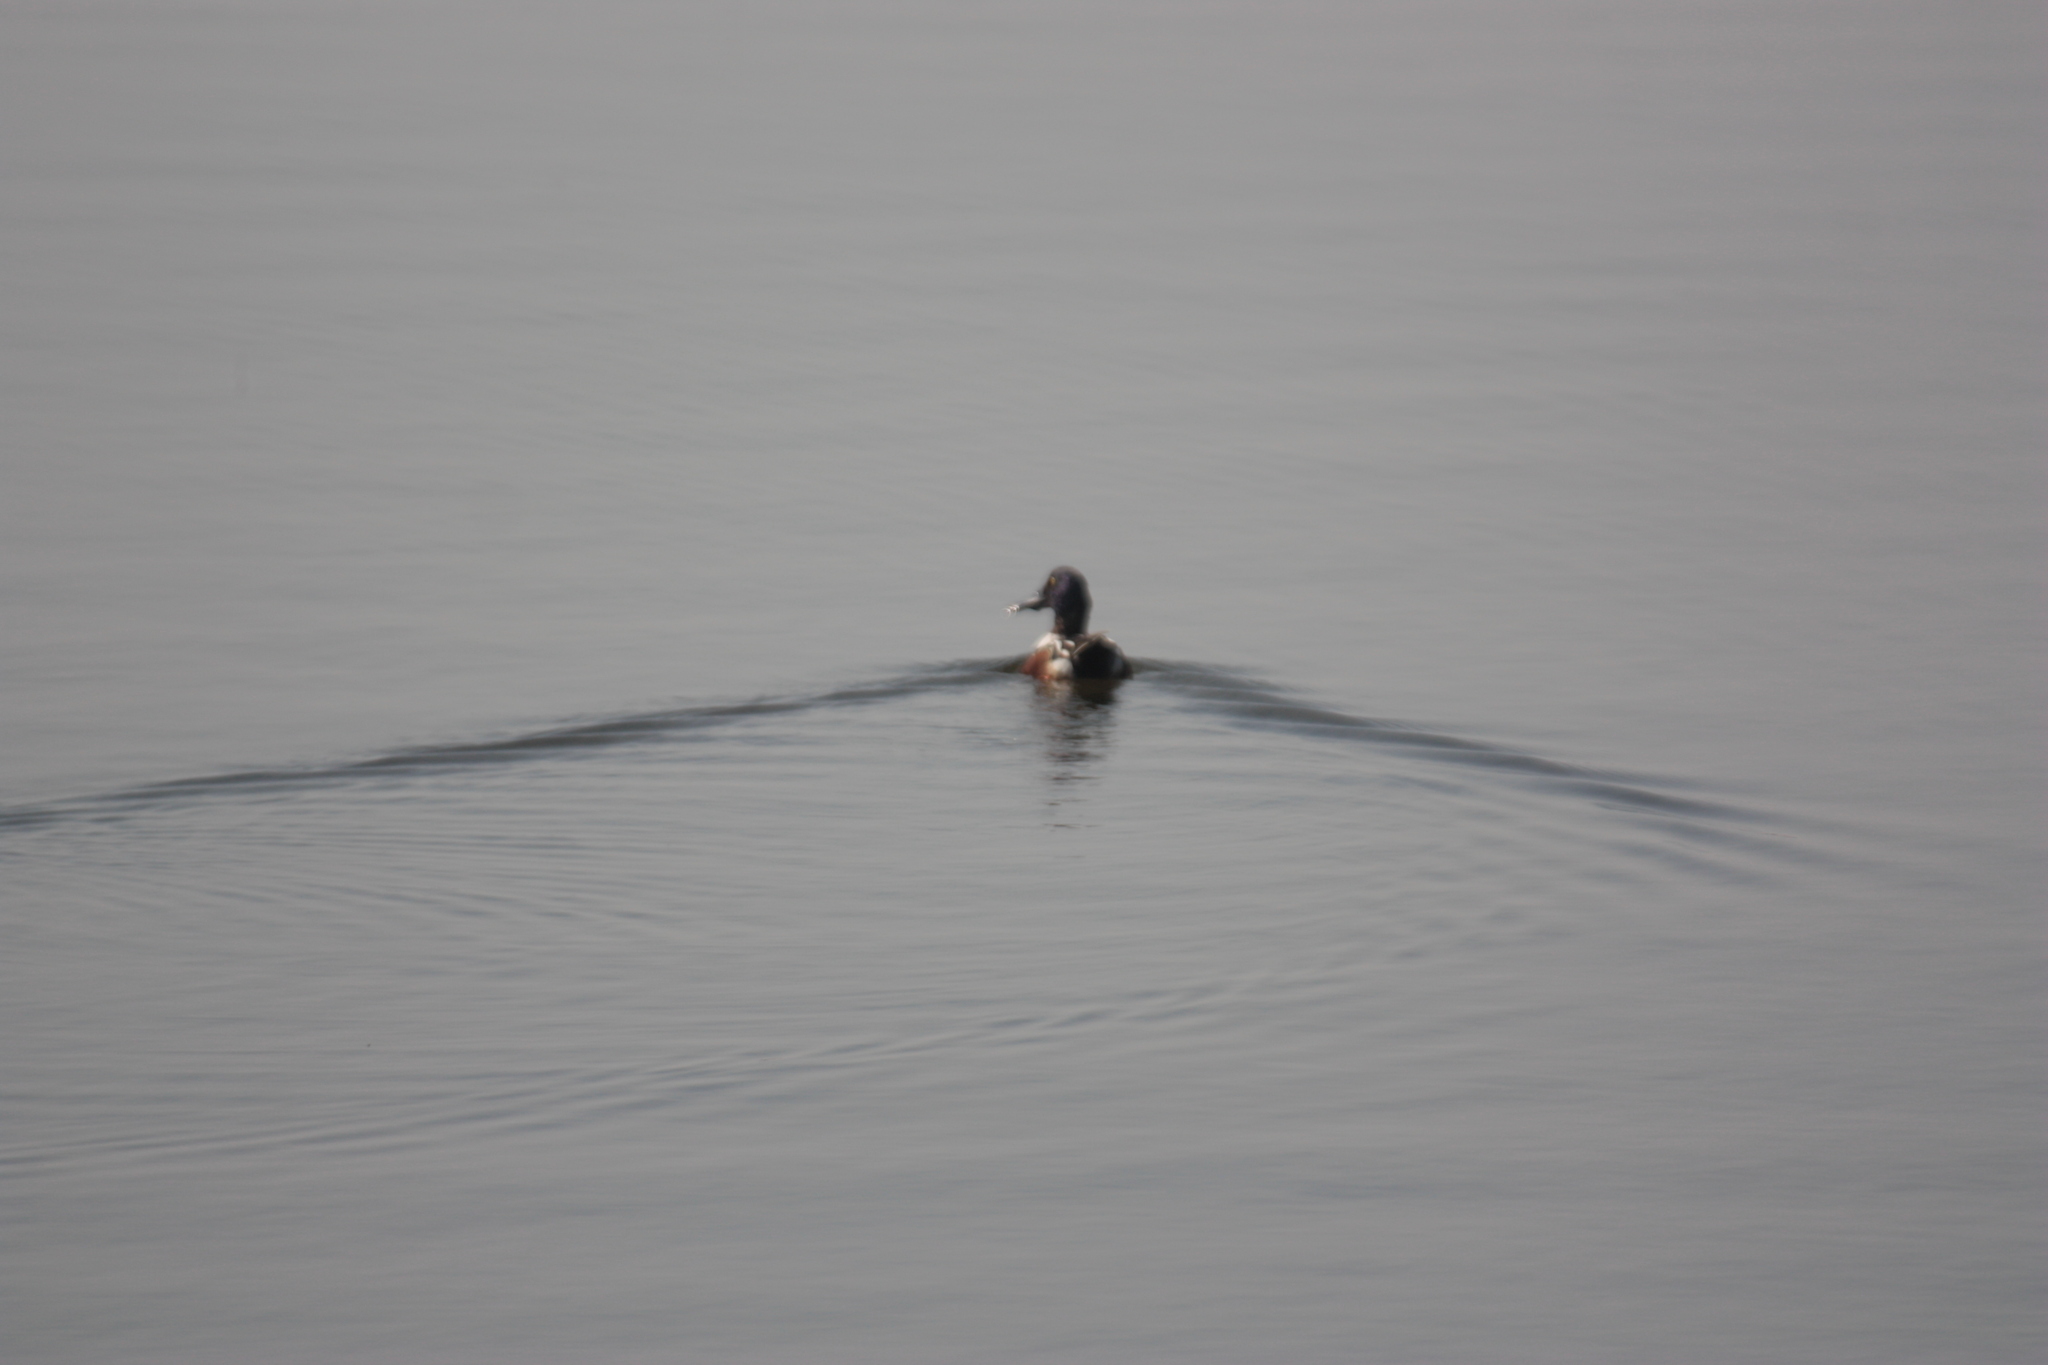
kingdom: Animalia
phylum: Chordata
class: Aves
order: Anseriformes
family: Anatidae
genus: Spatula
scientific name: Spatula clypeata
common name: Northern shoveler
